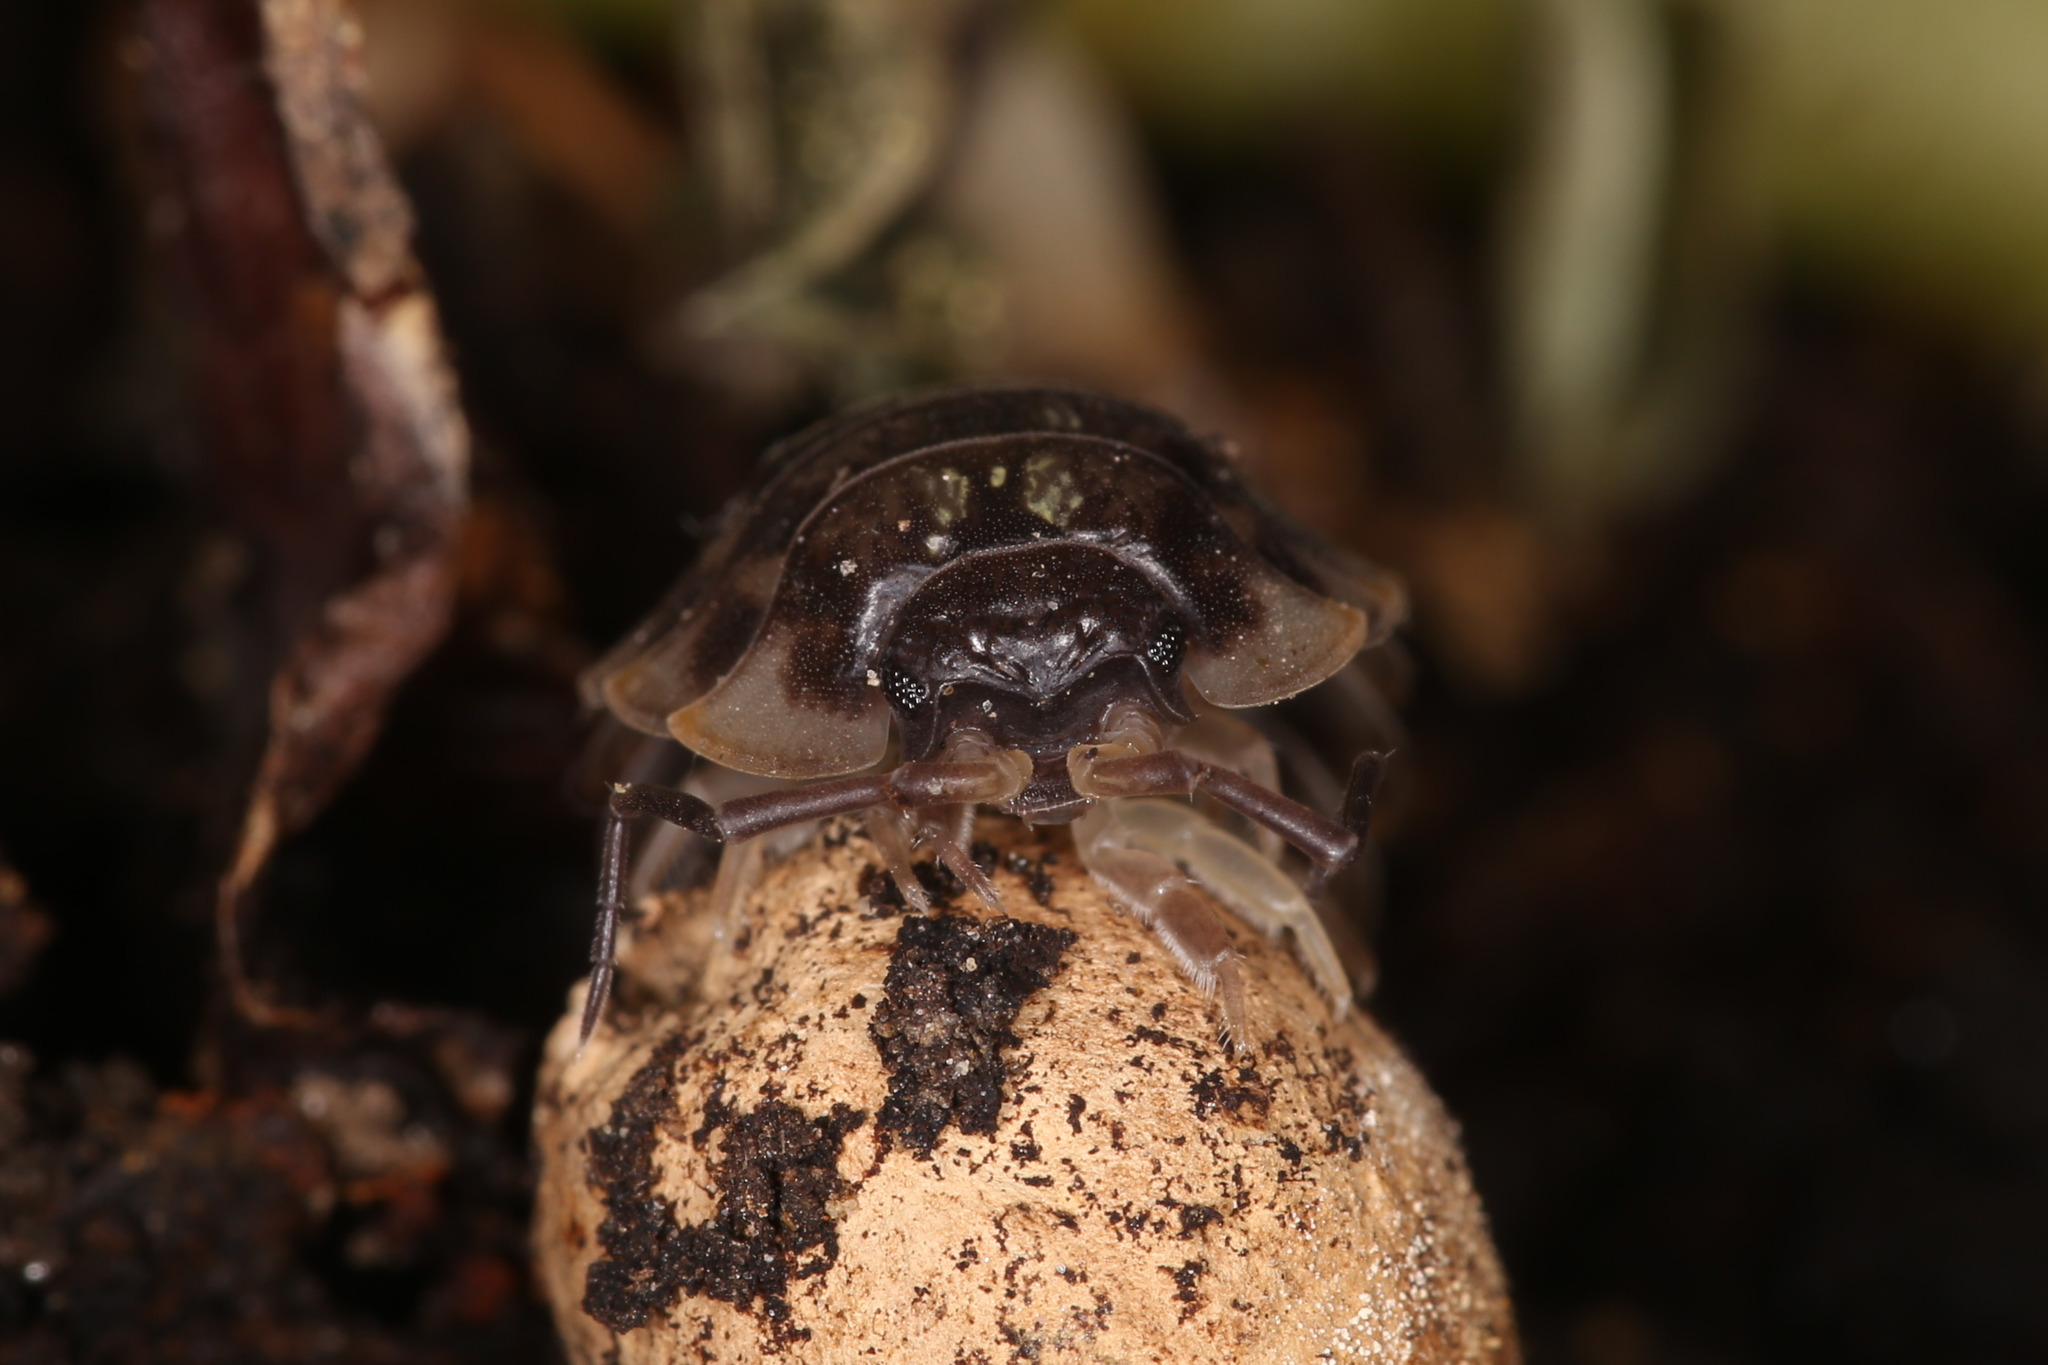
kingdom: Animalia
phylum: Arthropoda
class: Malacostraca
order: Isopoda
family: Oniscidae
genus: Oniscus
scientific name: Oniscus asellus
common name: Common shiny woodlouse
